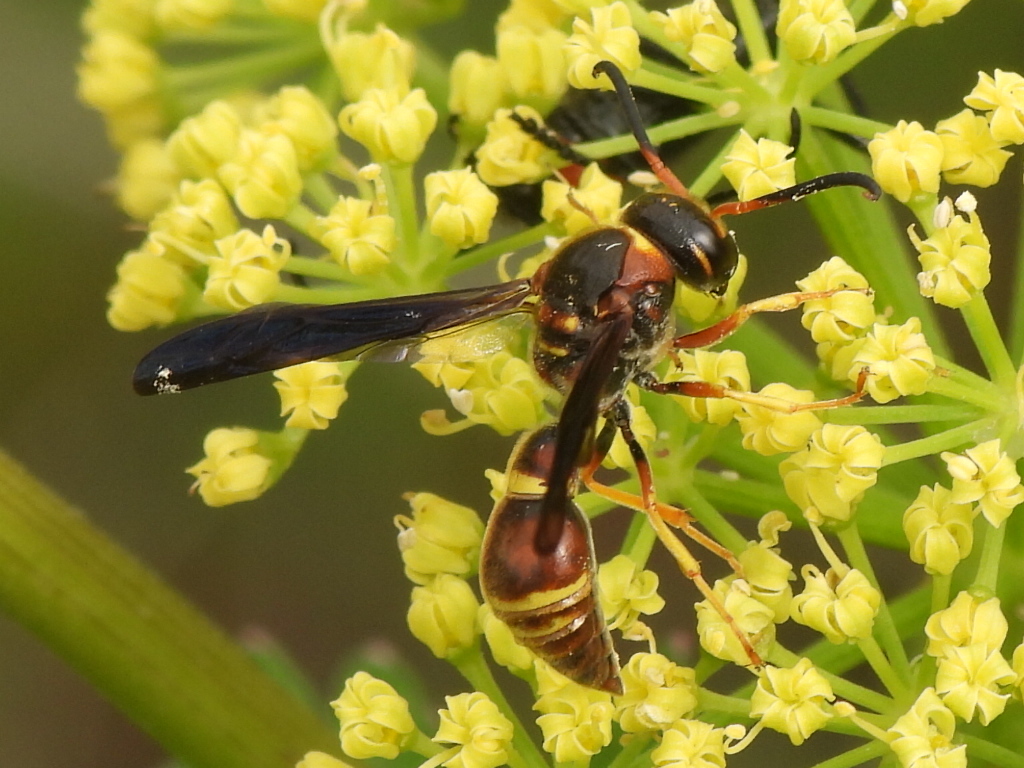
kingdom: Animalia
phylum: Arthropoda
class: Insecta
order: Hymenoptera
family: Eumenidae
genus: Parazumia
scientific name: Parazumia tolteca
